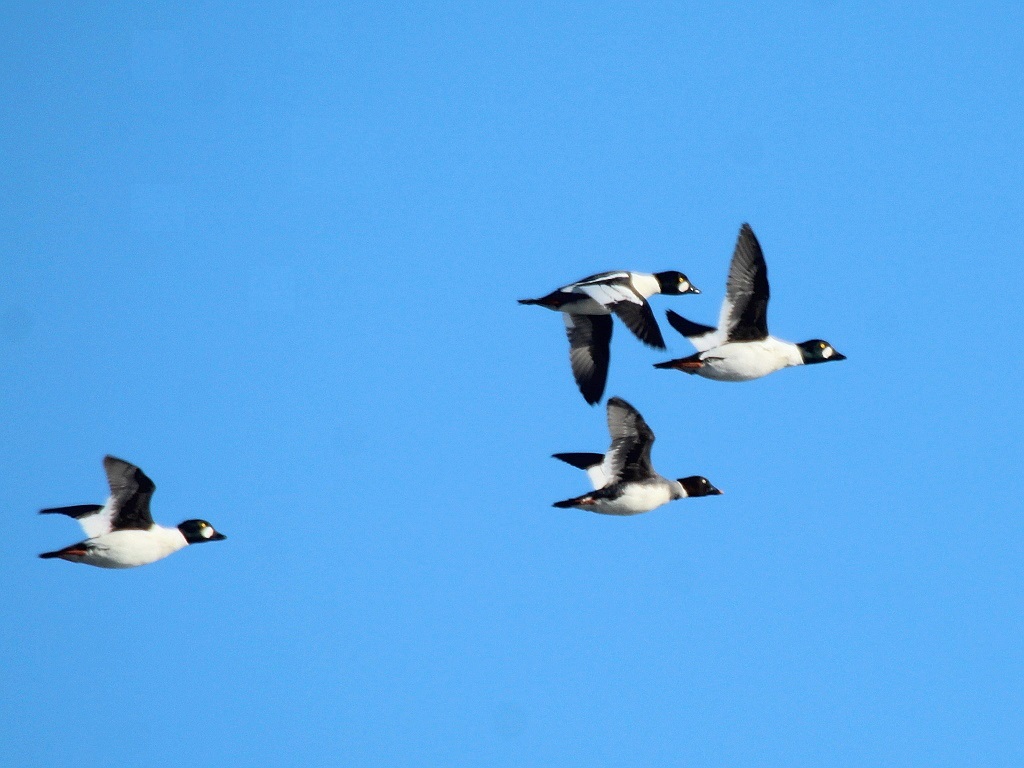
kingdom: Animalia
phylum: Chordata
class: Aves
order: Anseriformes
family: Anatidae
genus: Bucephala
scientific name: Bucephala clangula
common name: Common goldeneye
